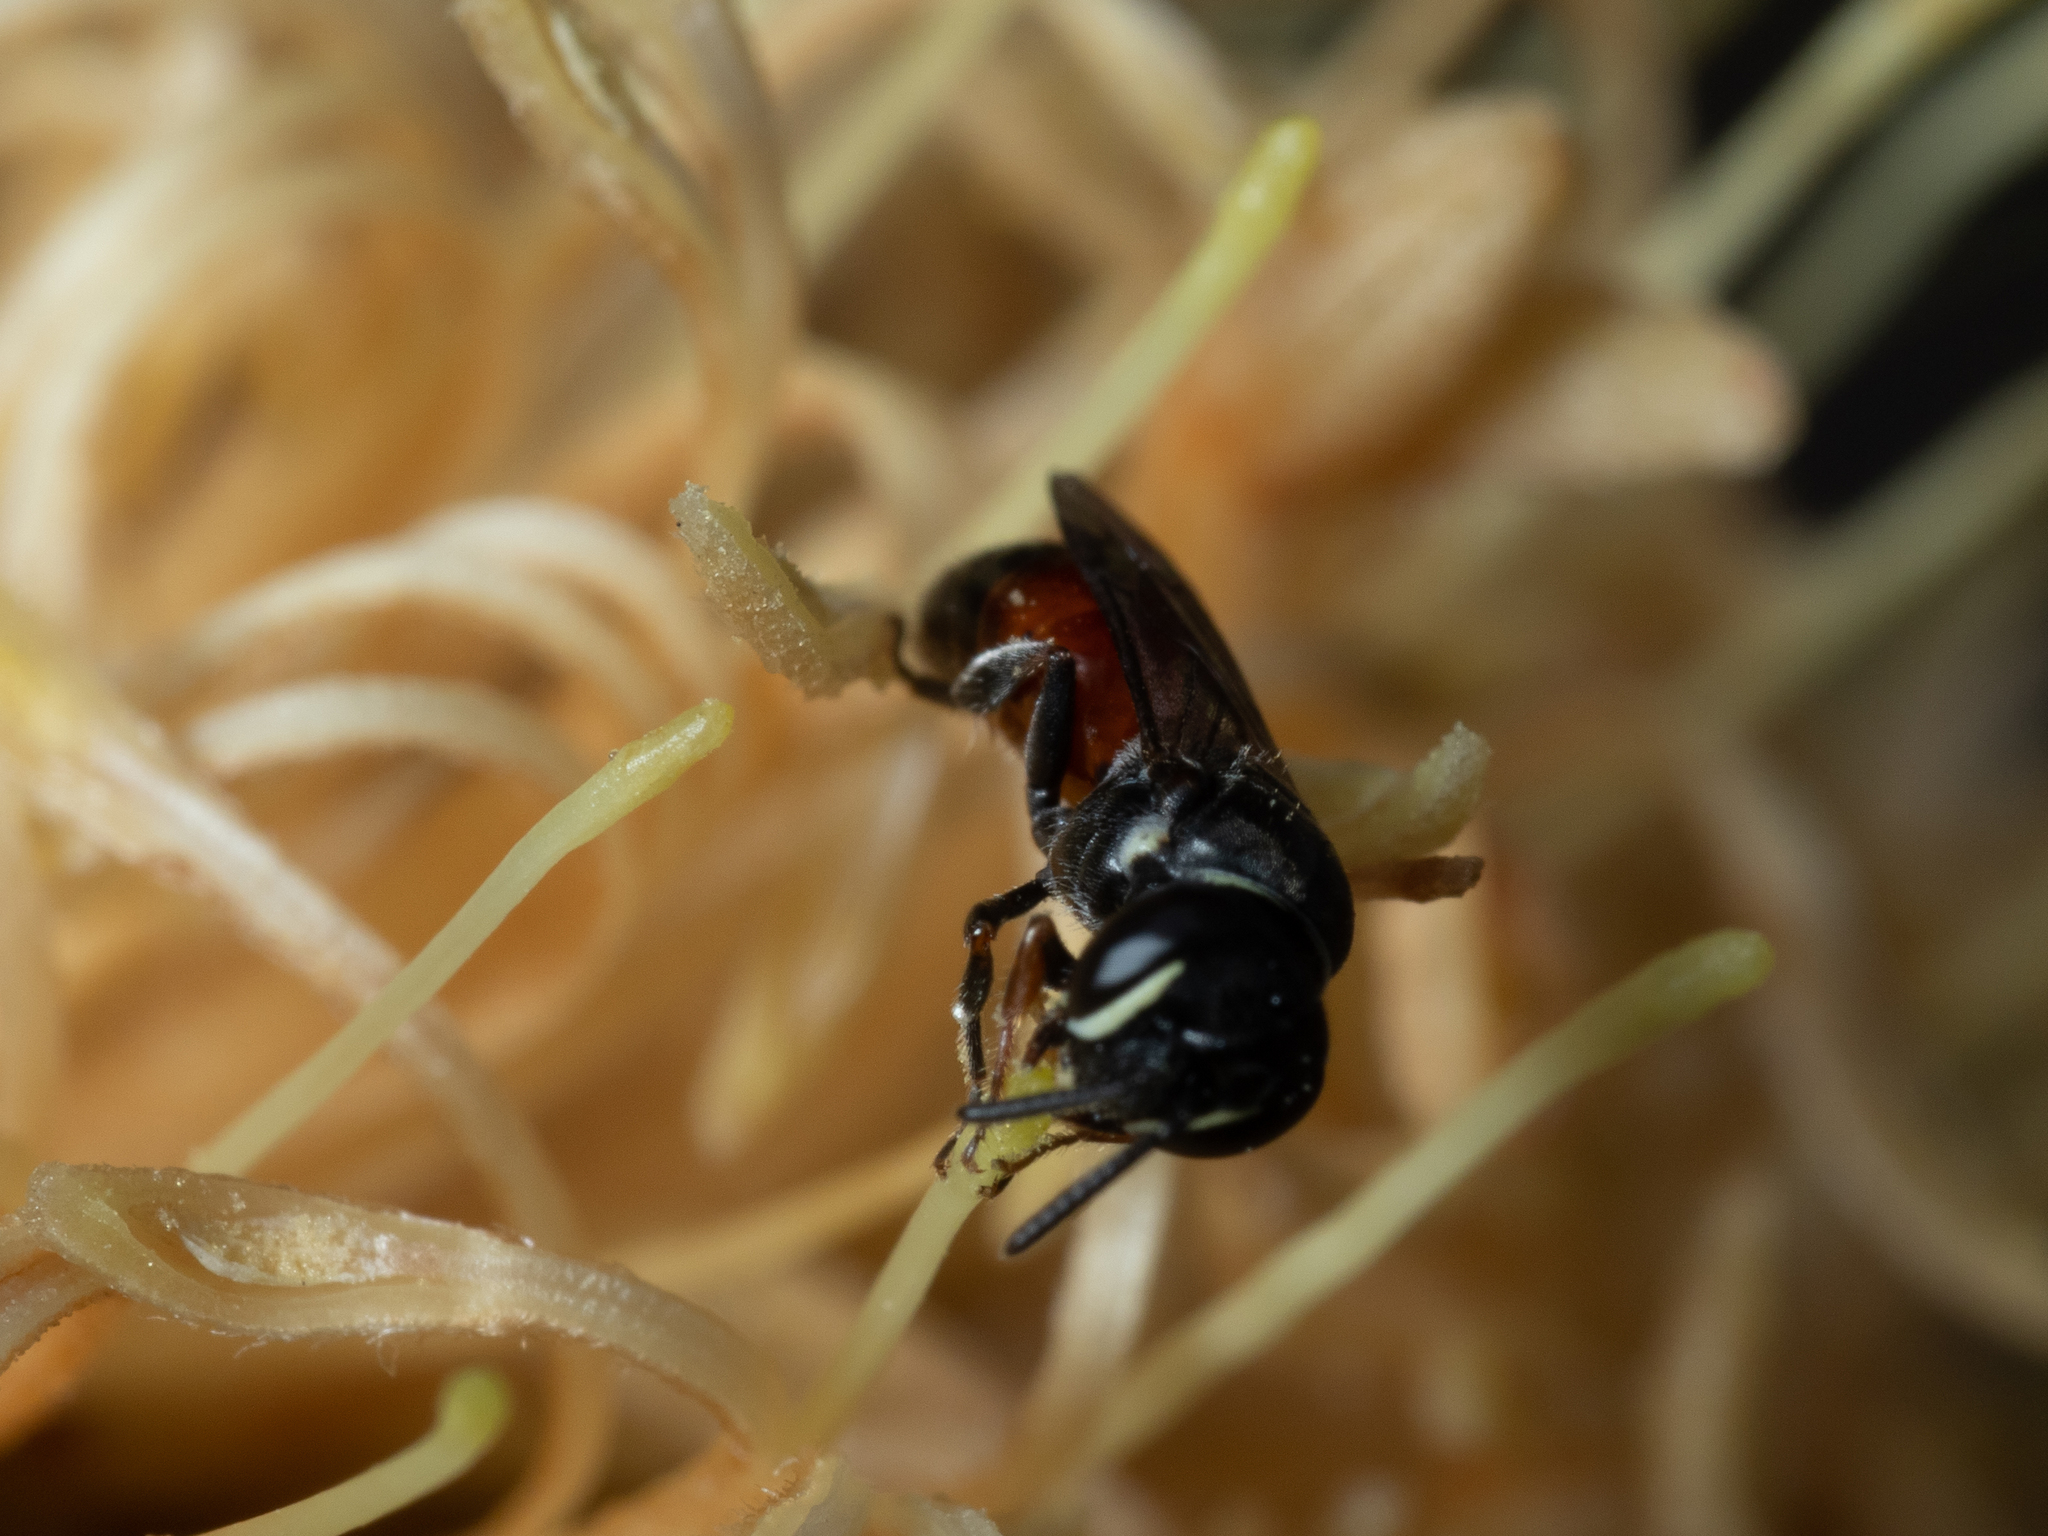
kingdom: Animalia
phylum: Arthropoda
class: Insecta
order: Hymenoptera
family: Colletidae
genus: Hylaeus
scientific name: Hylaeus littleri
